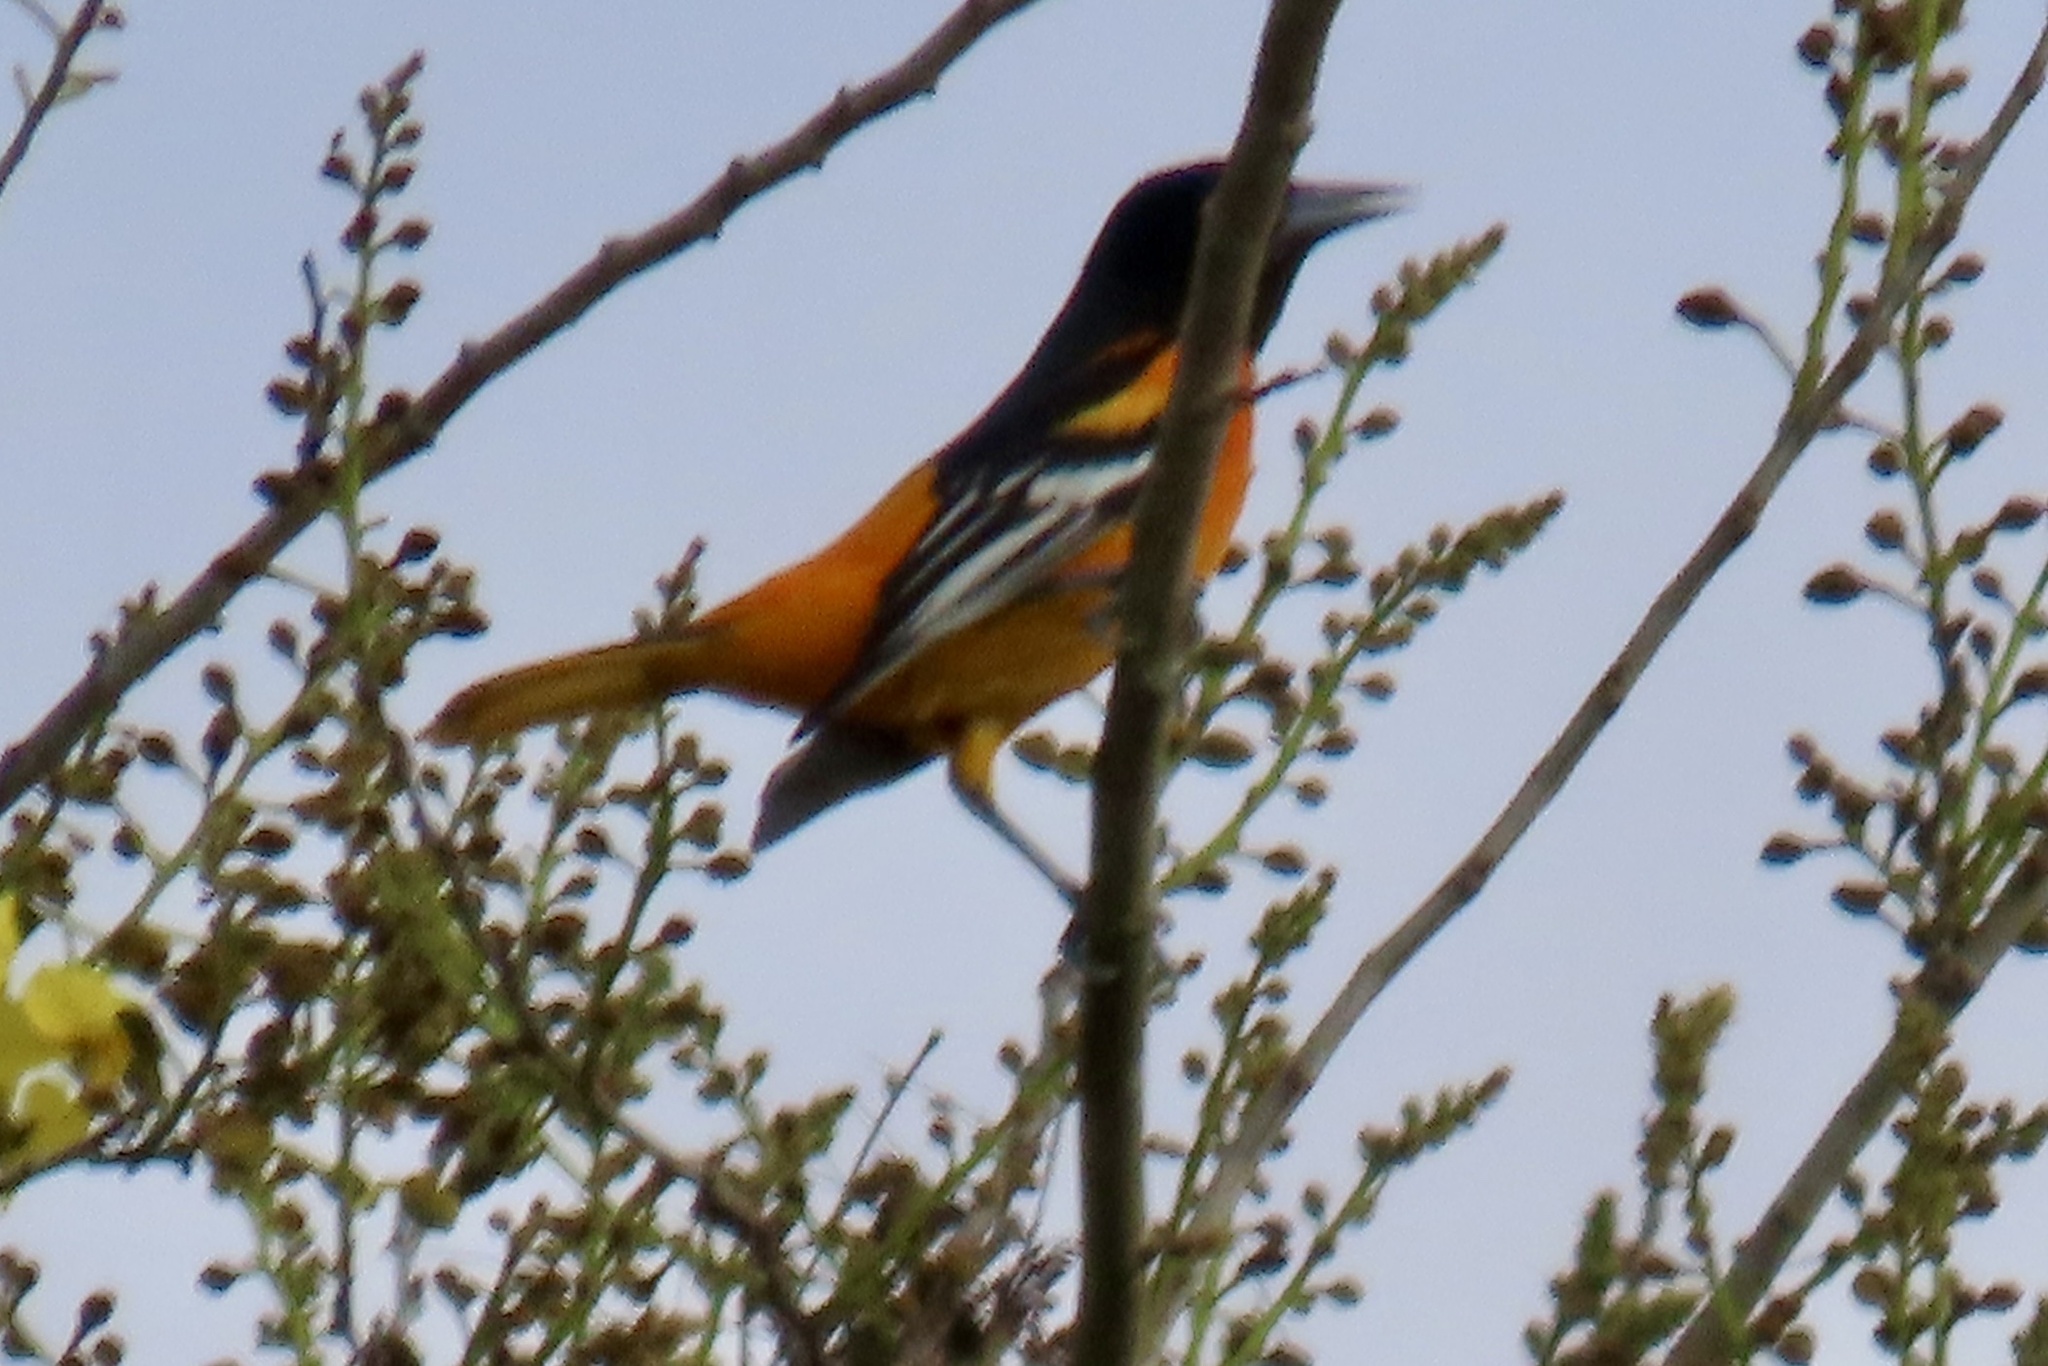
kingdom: Animalia
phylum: Chordata
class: Aves
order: Passeriformes
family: Icteridae
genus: Icterus
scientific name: Icterus galbula
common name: Baltimore oriole
